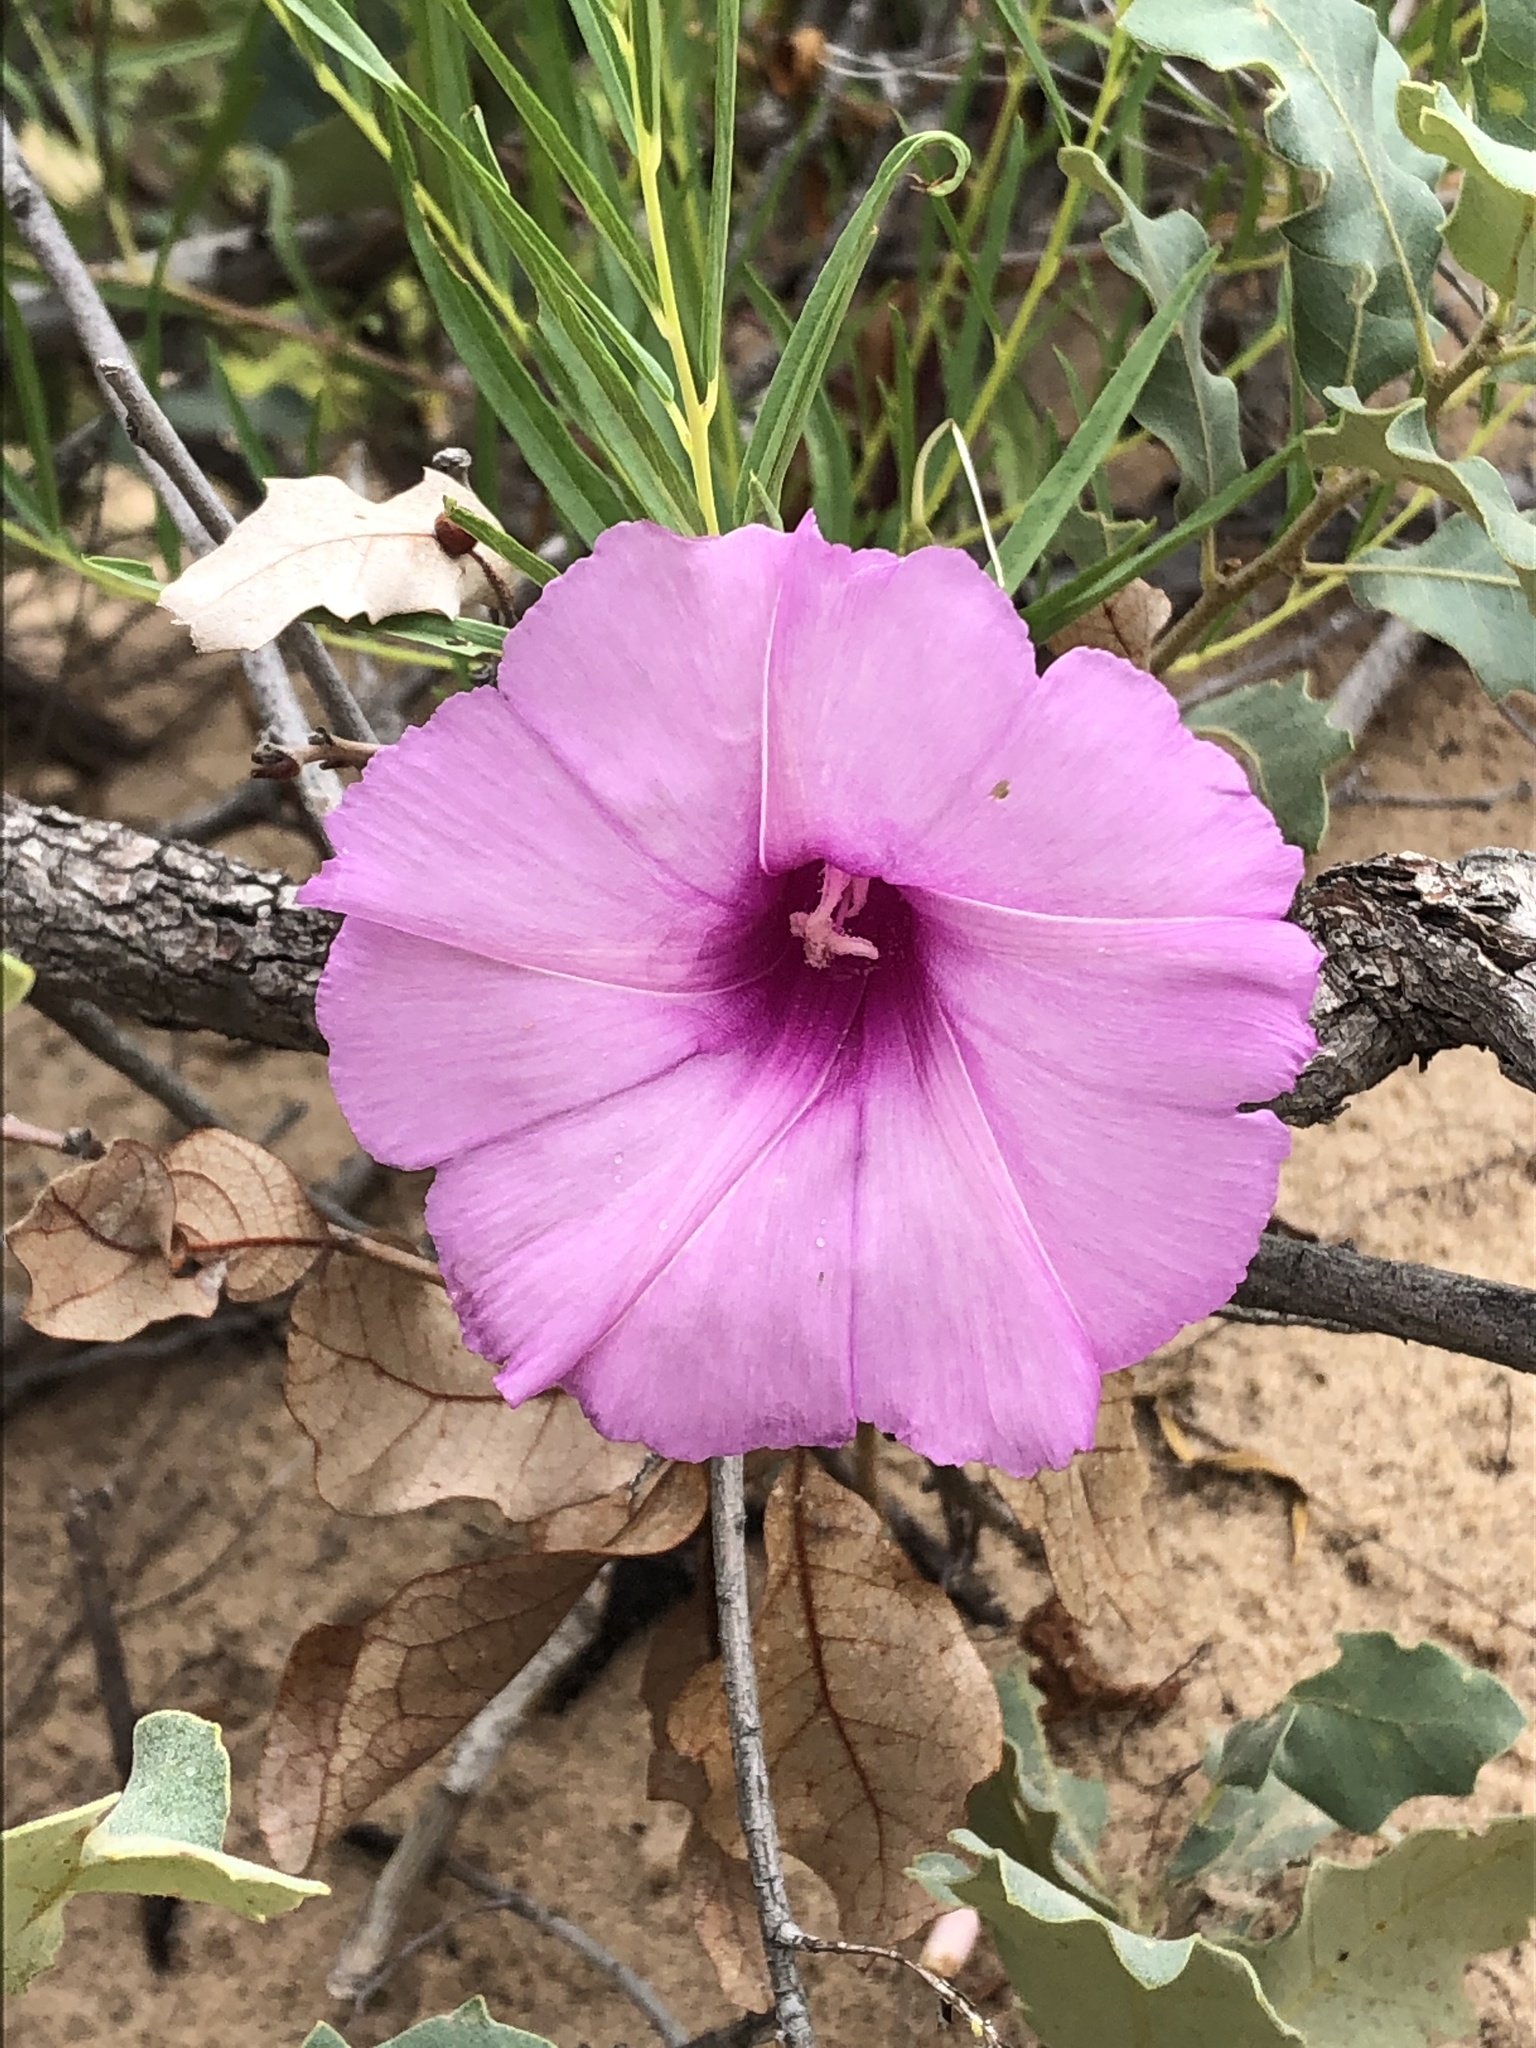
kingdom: Plantae
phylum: Tracheophyta
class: Magnoliopsida
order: Solanales
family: Convolvulaceae
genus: Ipomoea
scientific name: Ipomoea leptophylla
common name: Bush moonflower
